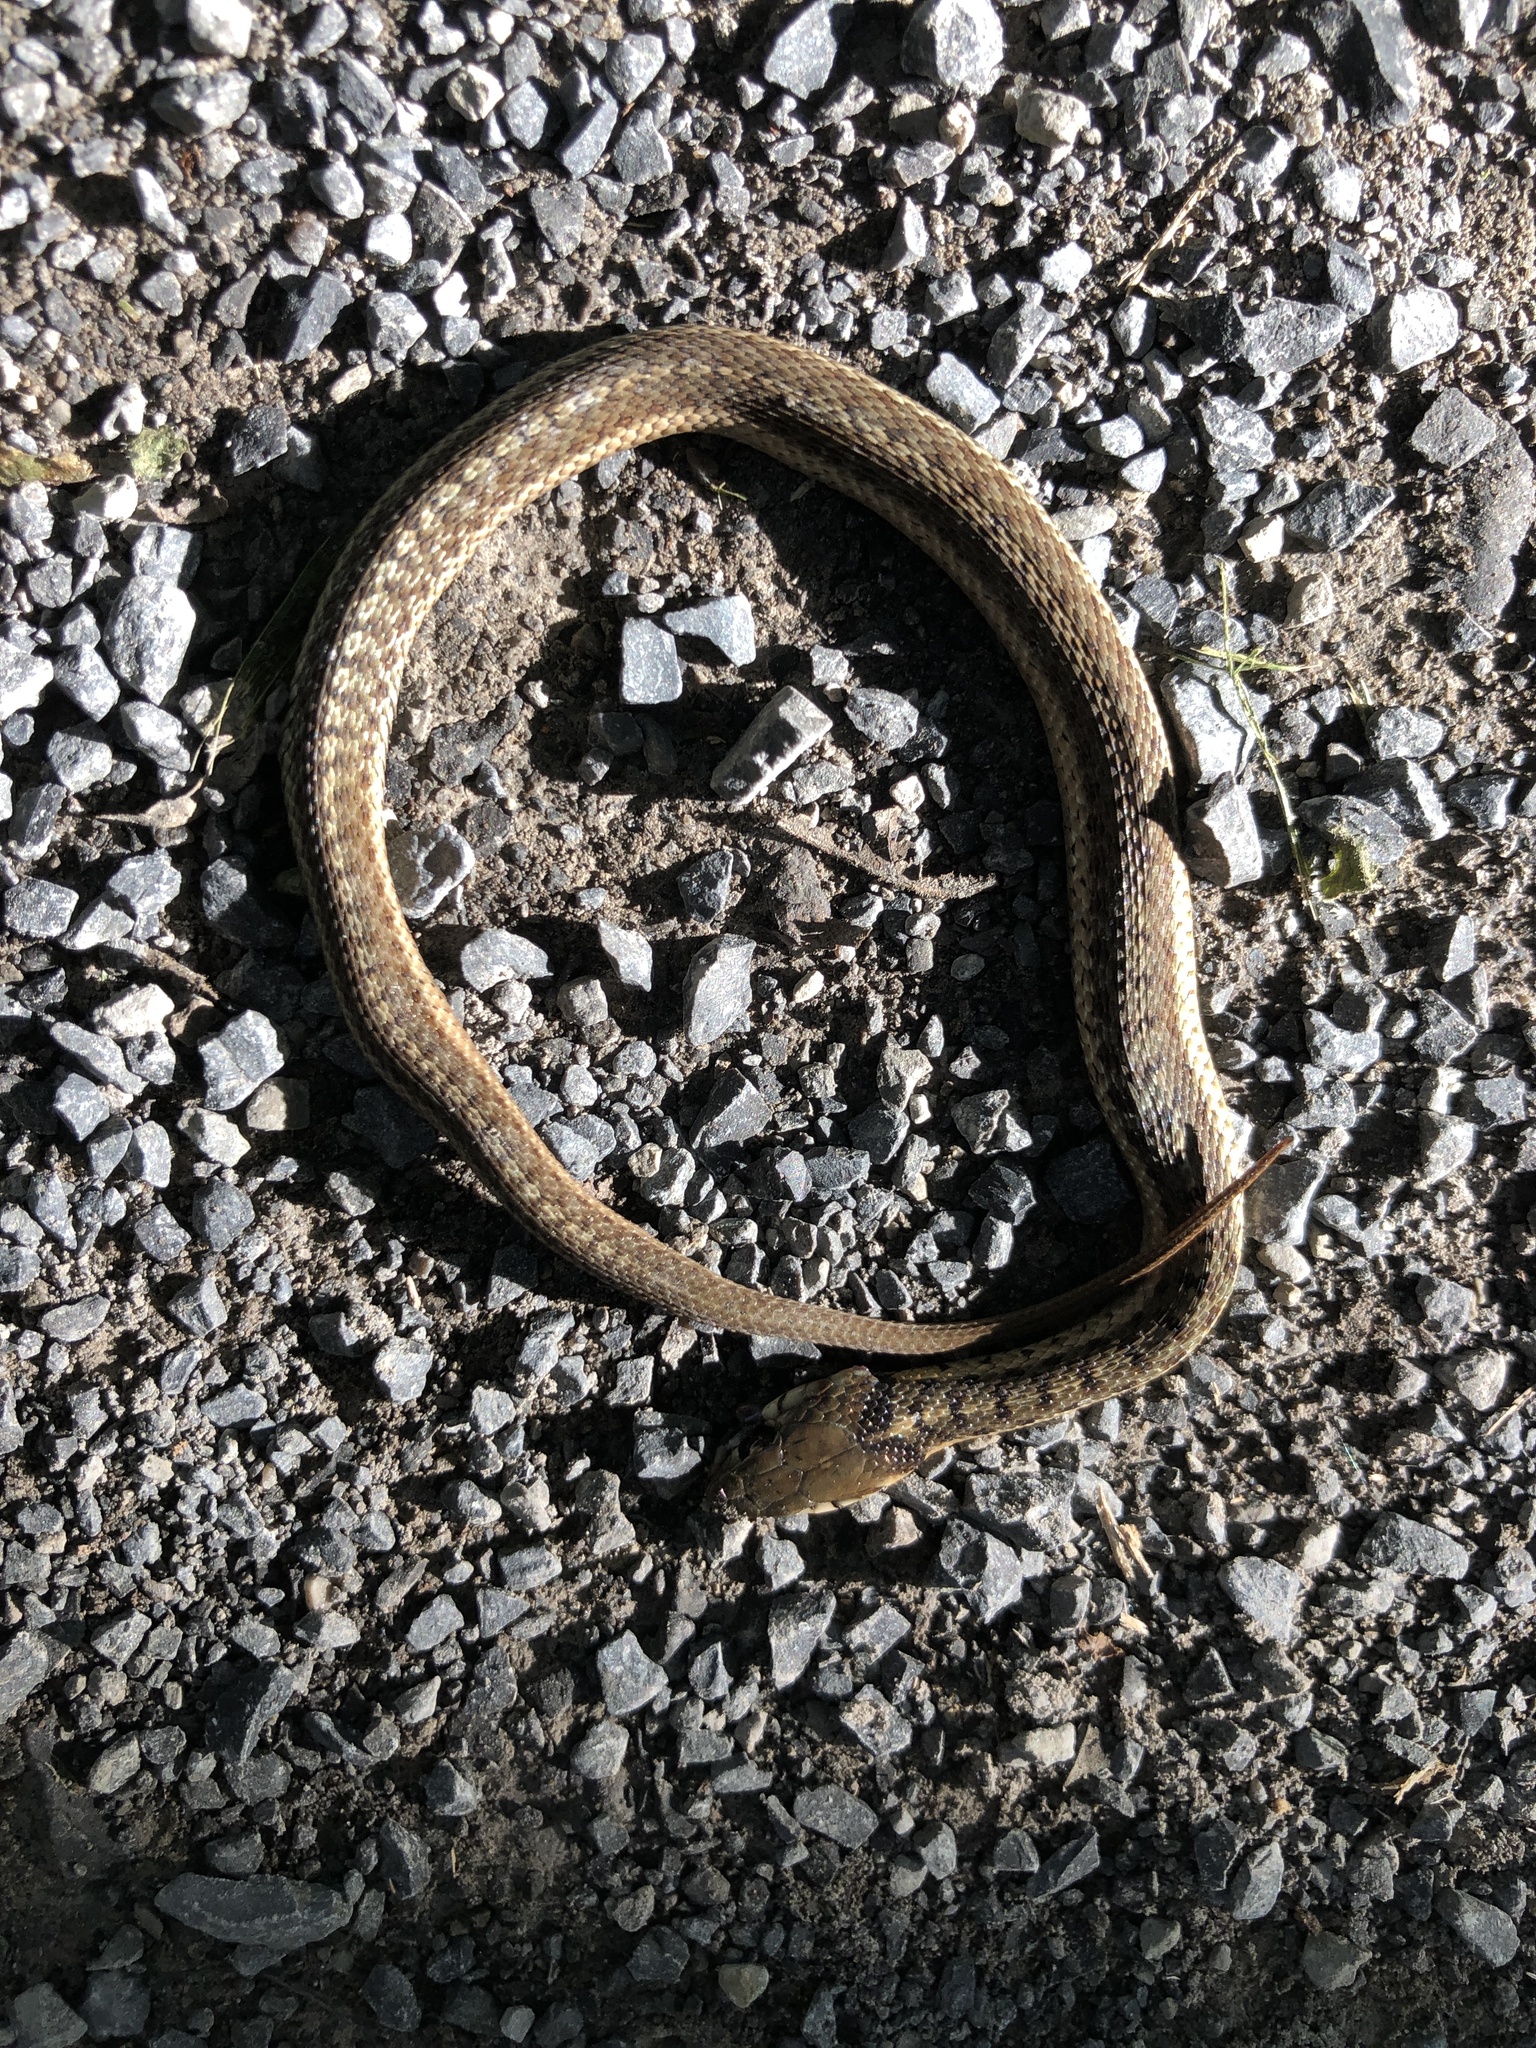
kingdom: Animalia
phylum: Chordata
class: Squamata
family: Colubridae
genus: Thamnophis
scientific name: Thamnophis sirtalis
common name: Common garter snake
